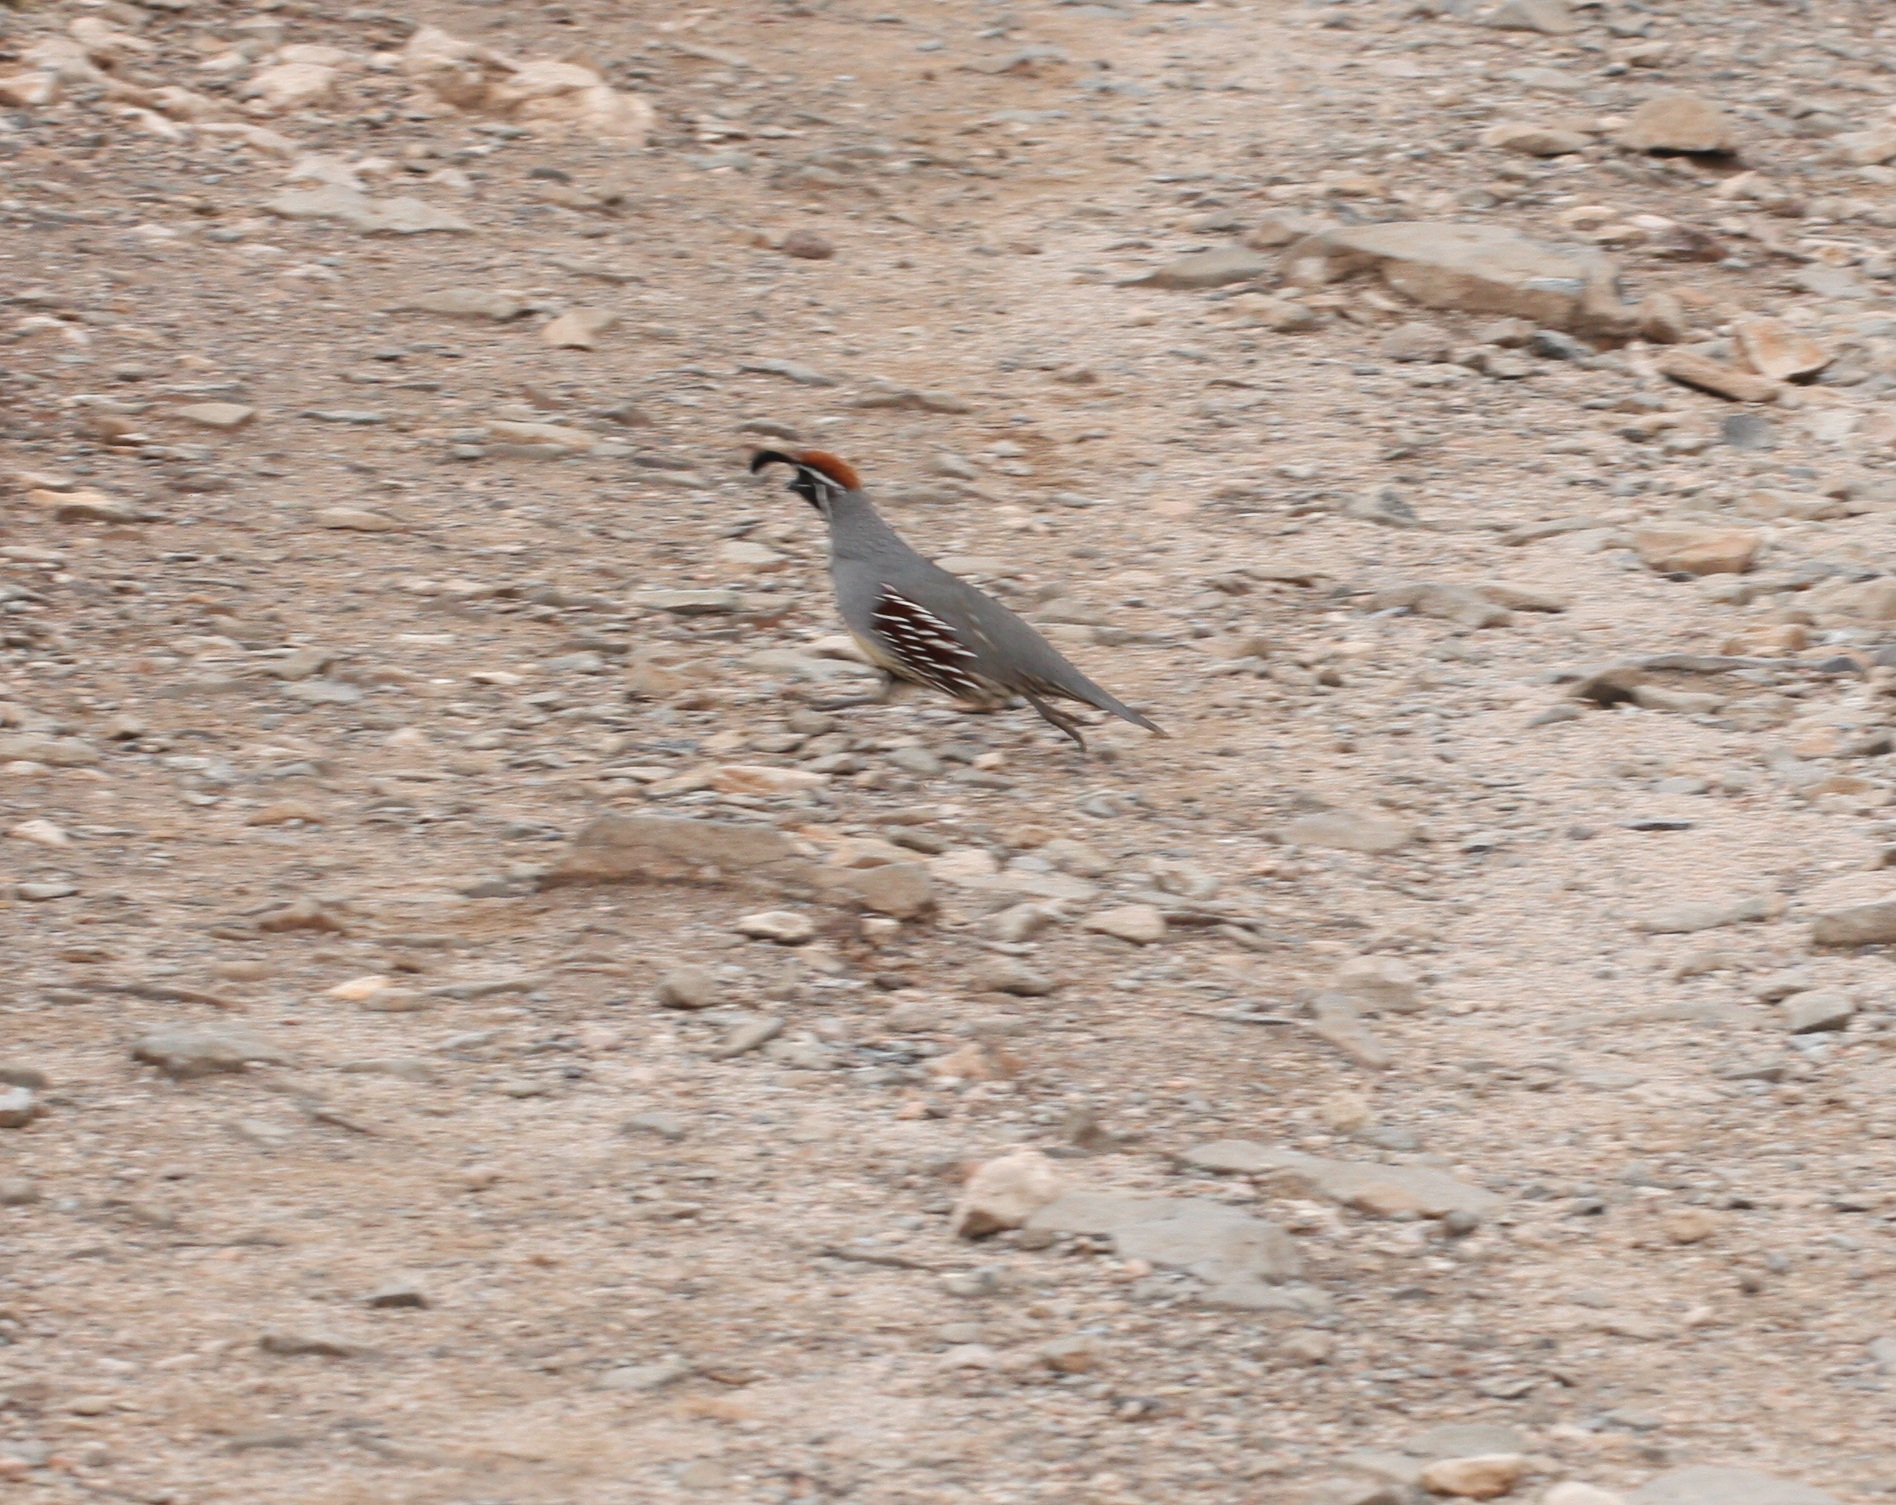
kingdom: Animalia
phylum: Chordata
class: Aves
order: Galliformes
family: Odontophoridae
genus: Callipepla
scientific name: Callipepla gambelii
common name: Gambel's quail
